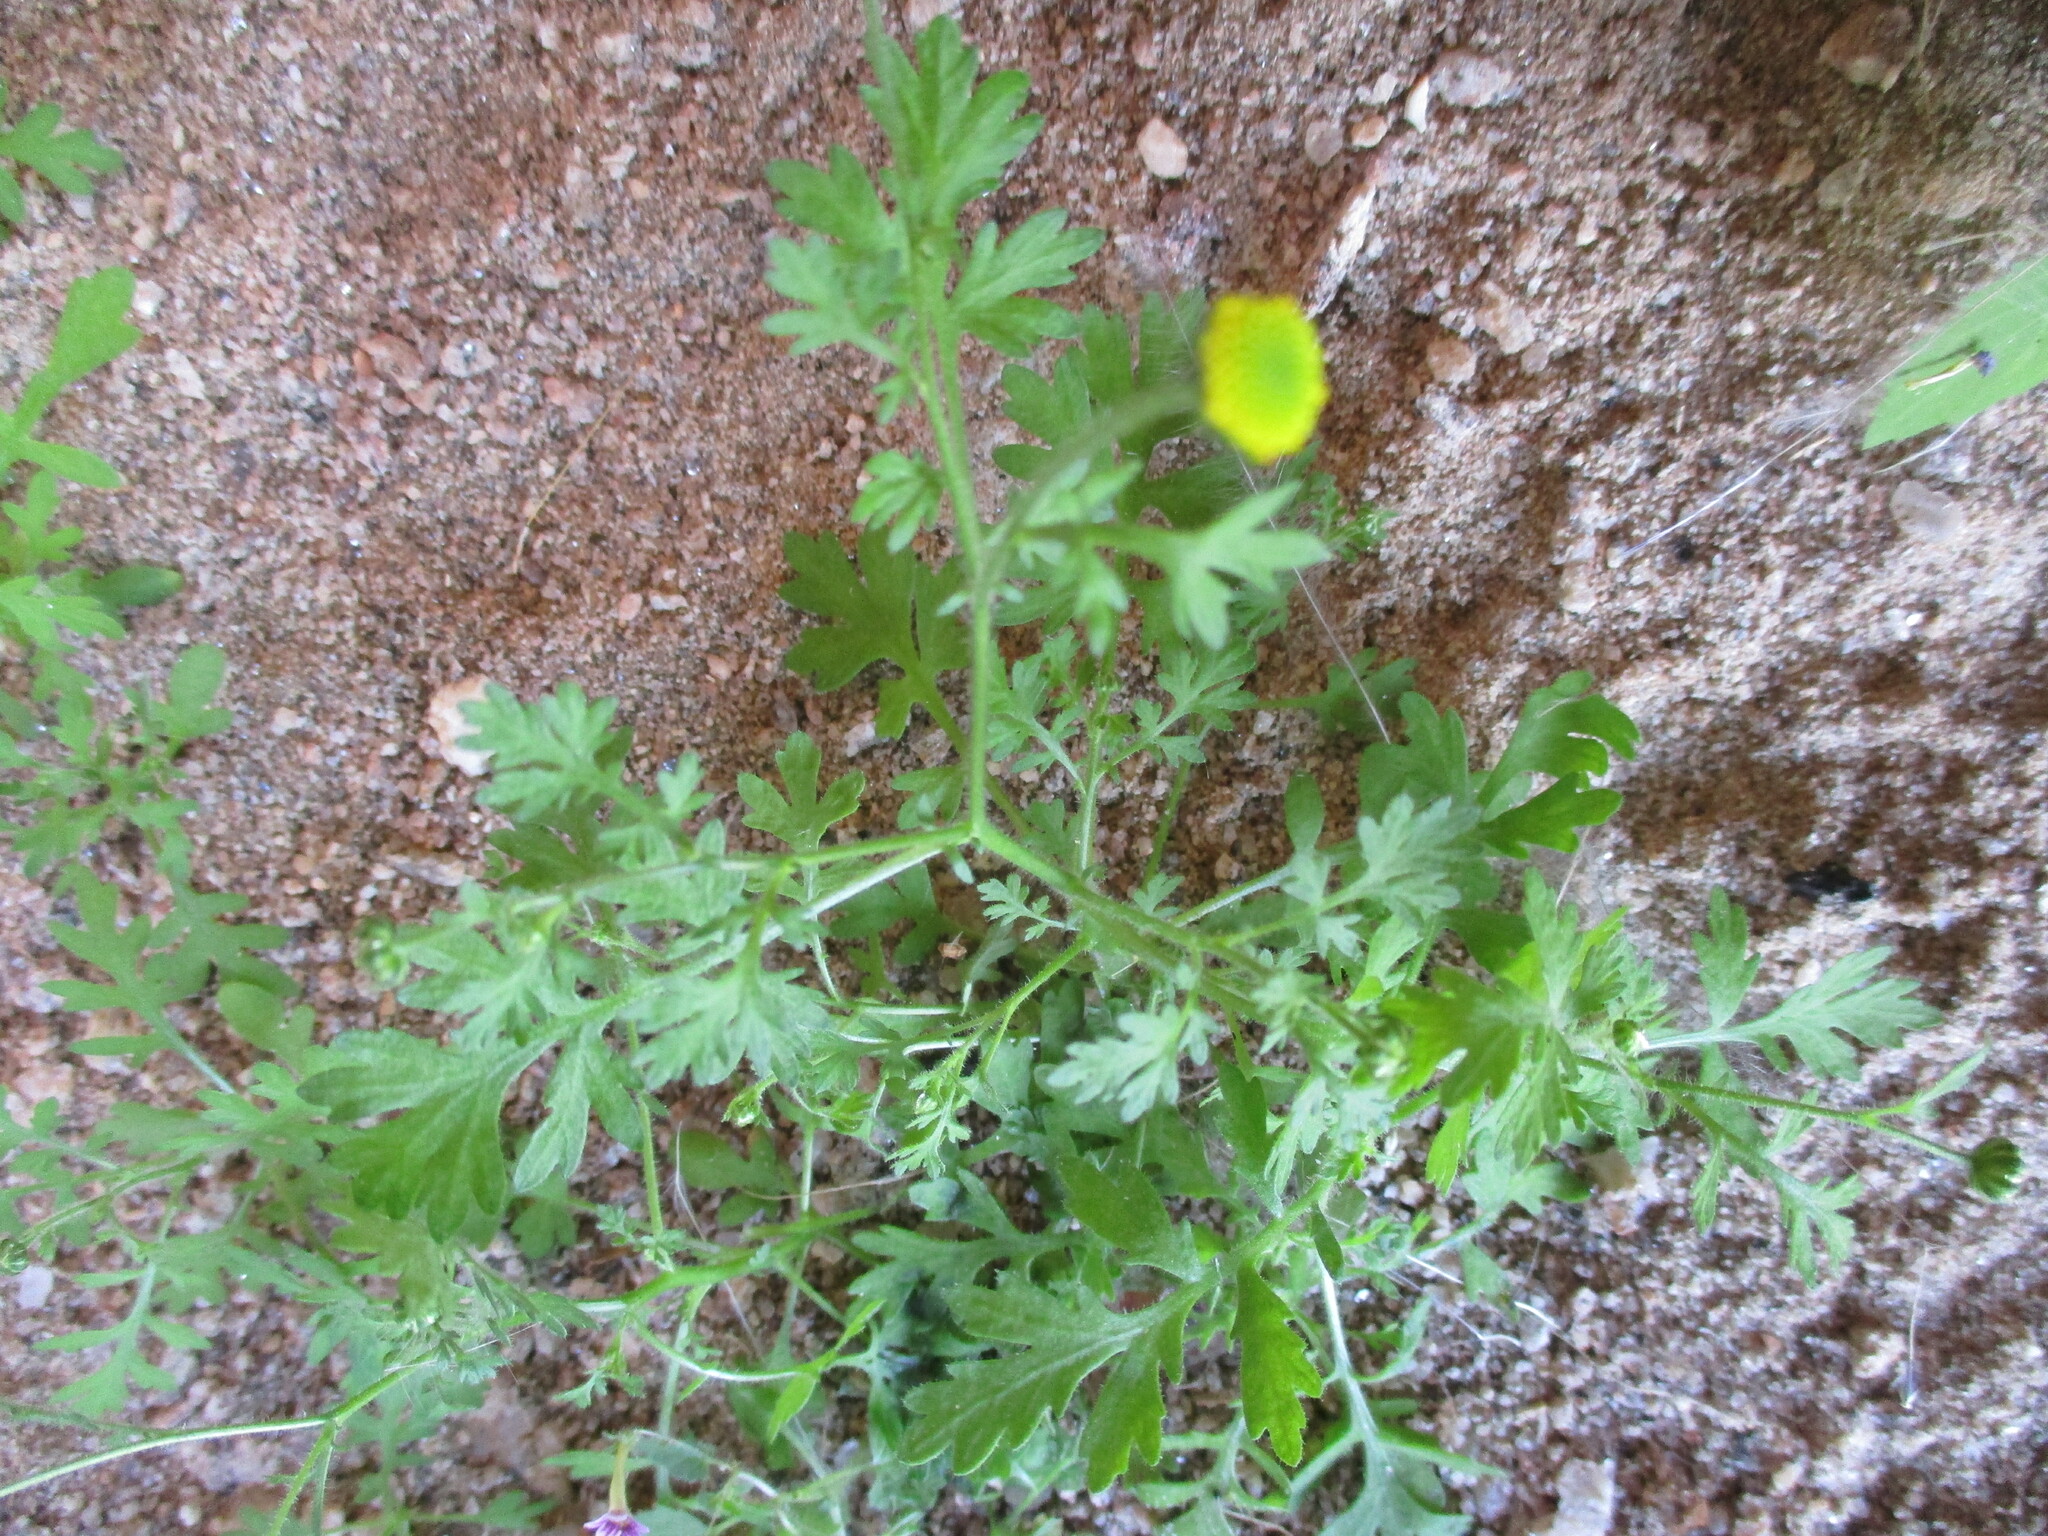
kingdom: Plantae
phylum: Tracheophyta
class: Magnoliopsida
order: Asterales
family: Asteraceae
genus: Foveolina
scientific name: Foveolina schinziana
